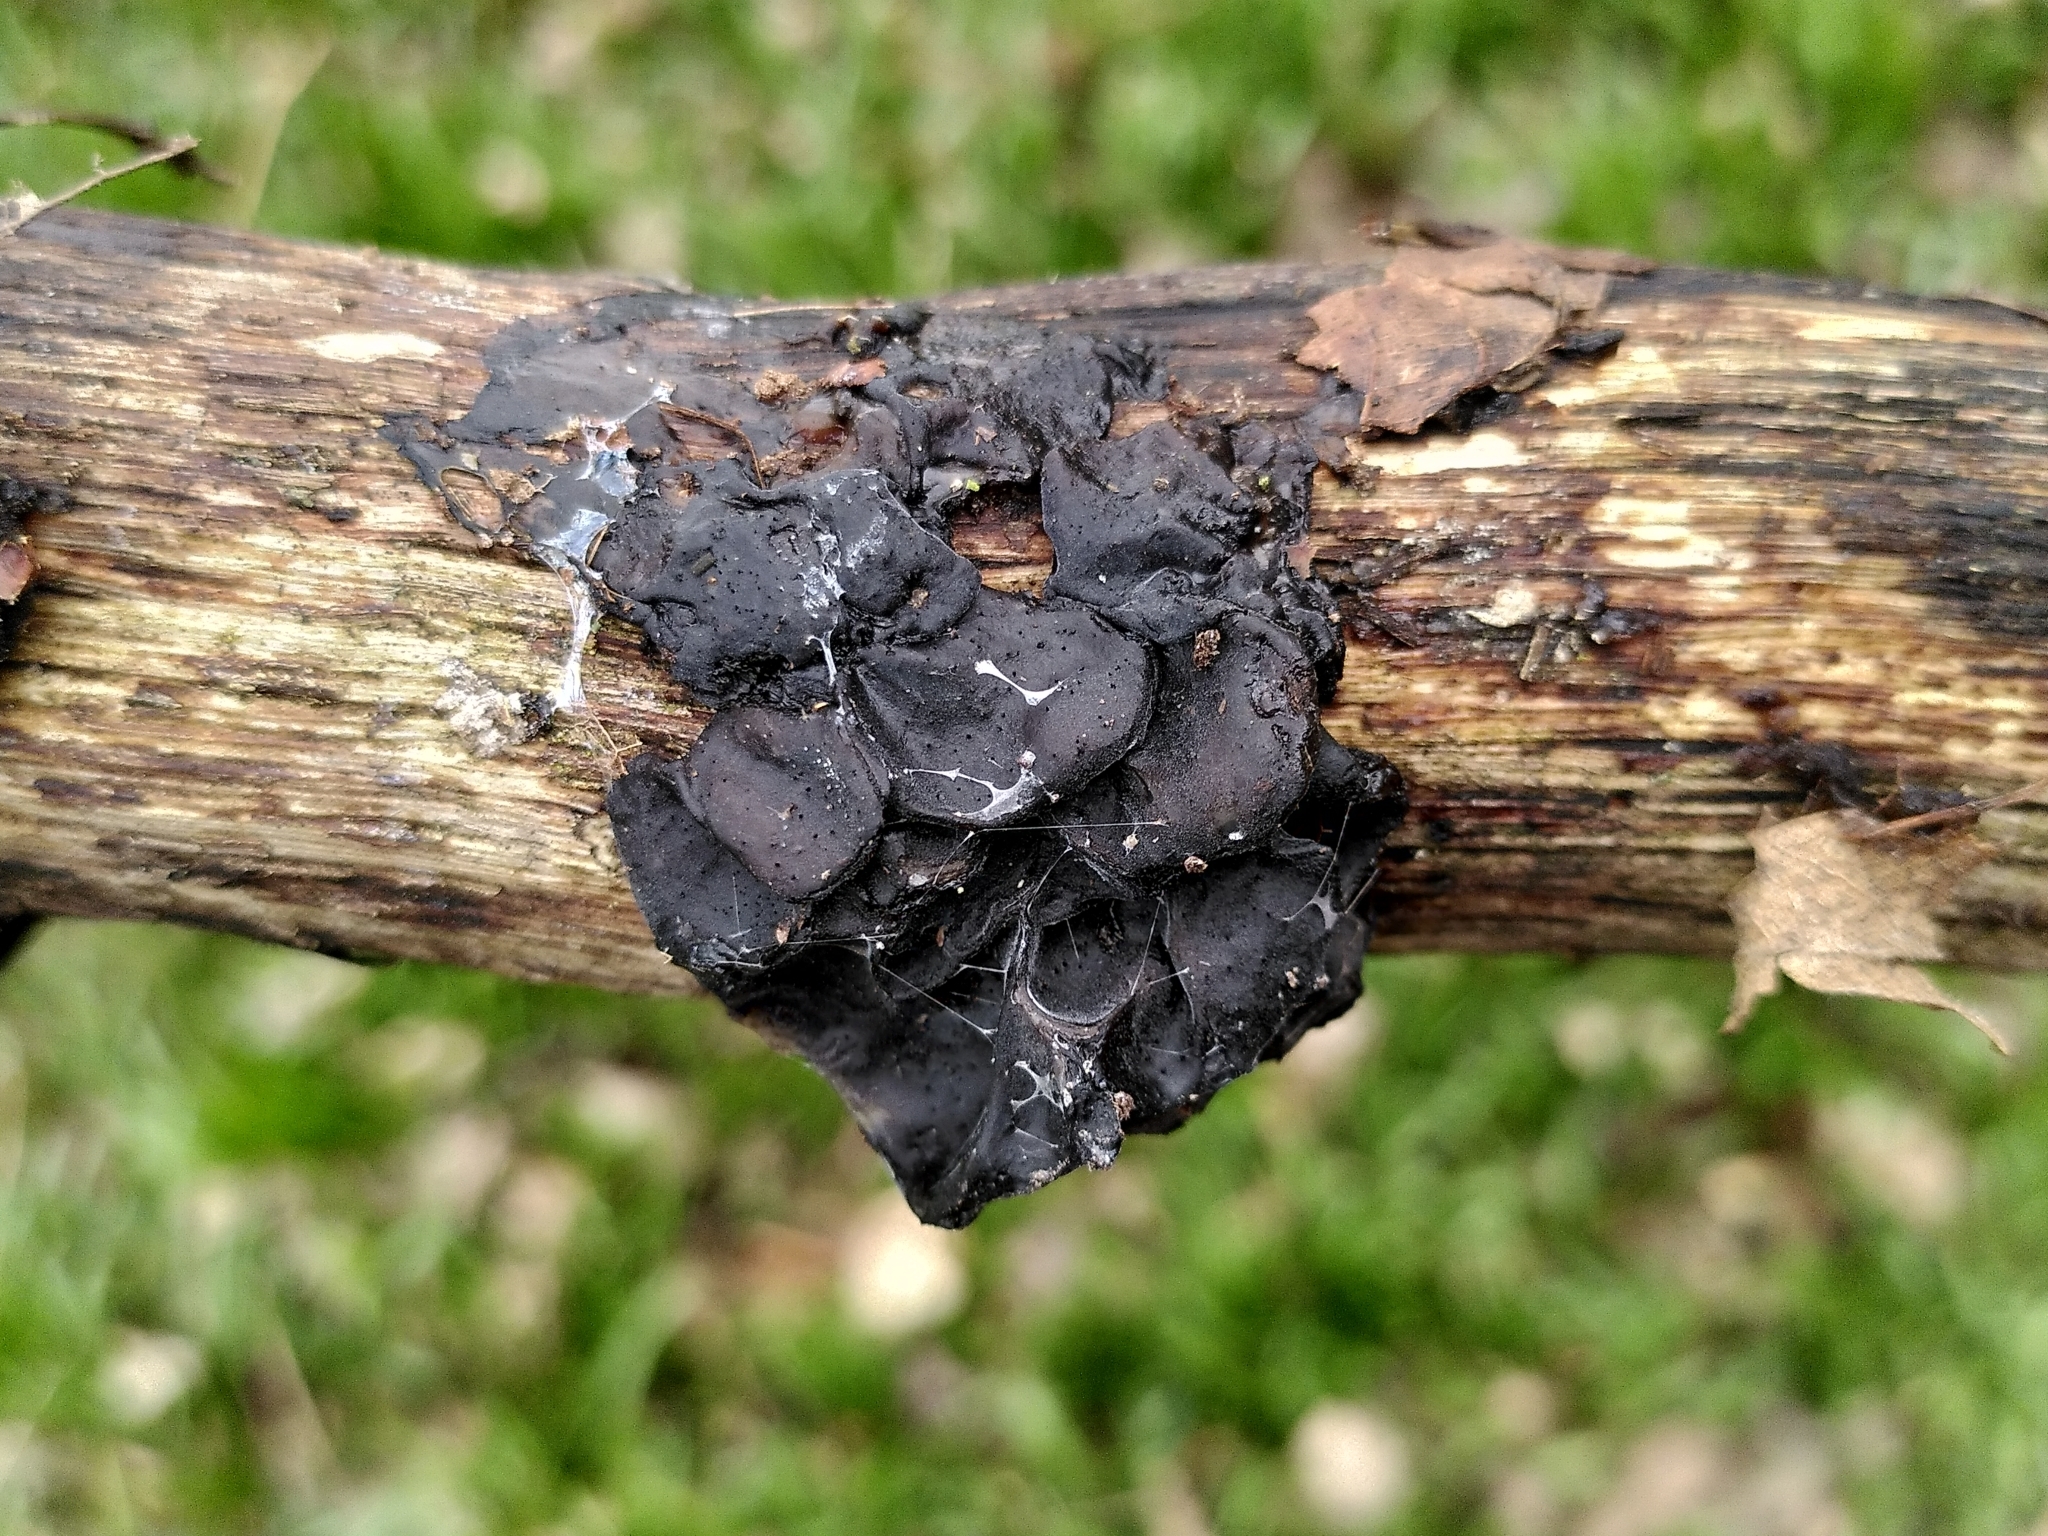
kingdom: Fungi
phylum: Basidiomycota
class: Agaricomycetes
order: Auriculariales
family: Auriculariaceae
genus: Exidia
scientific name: Exidia glandulosa
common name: Witches' butter
